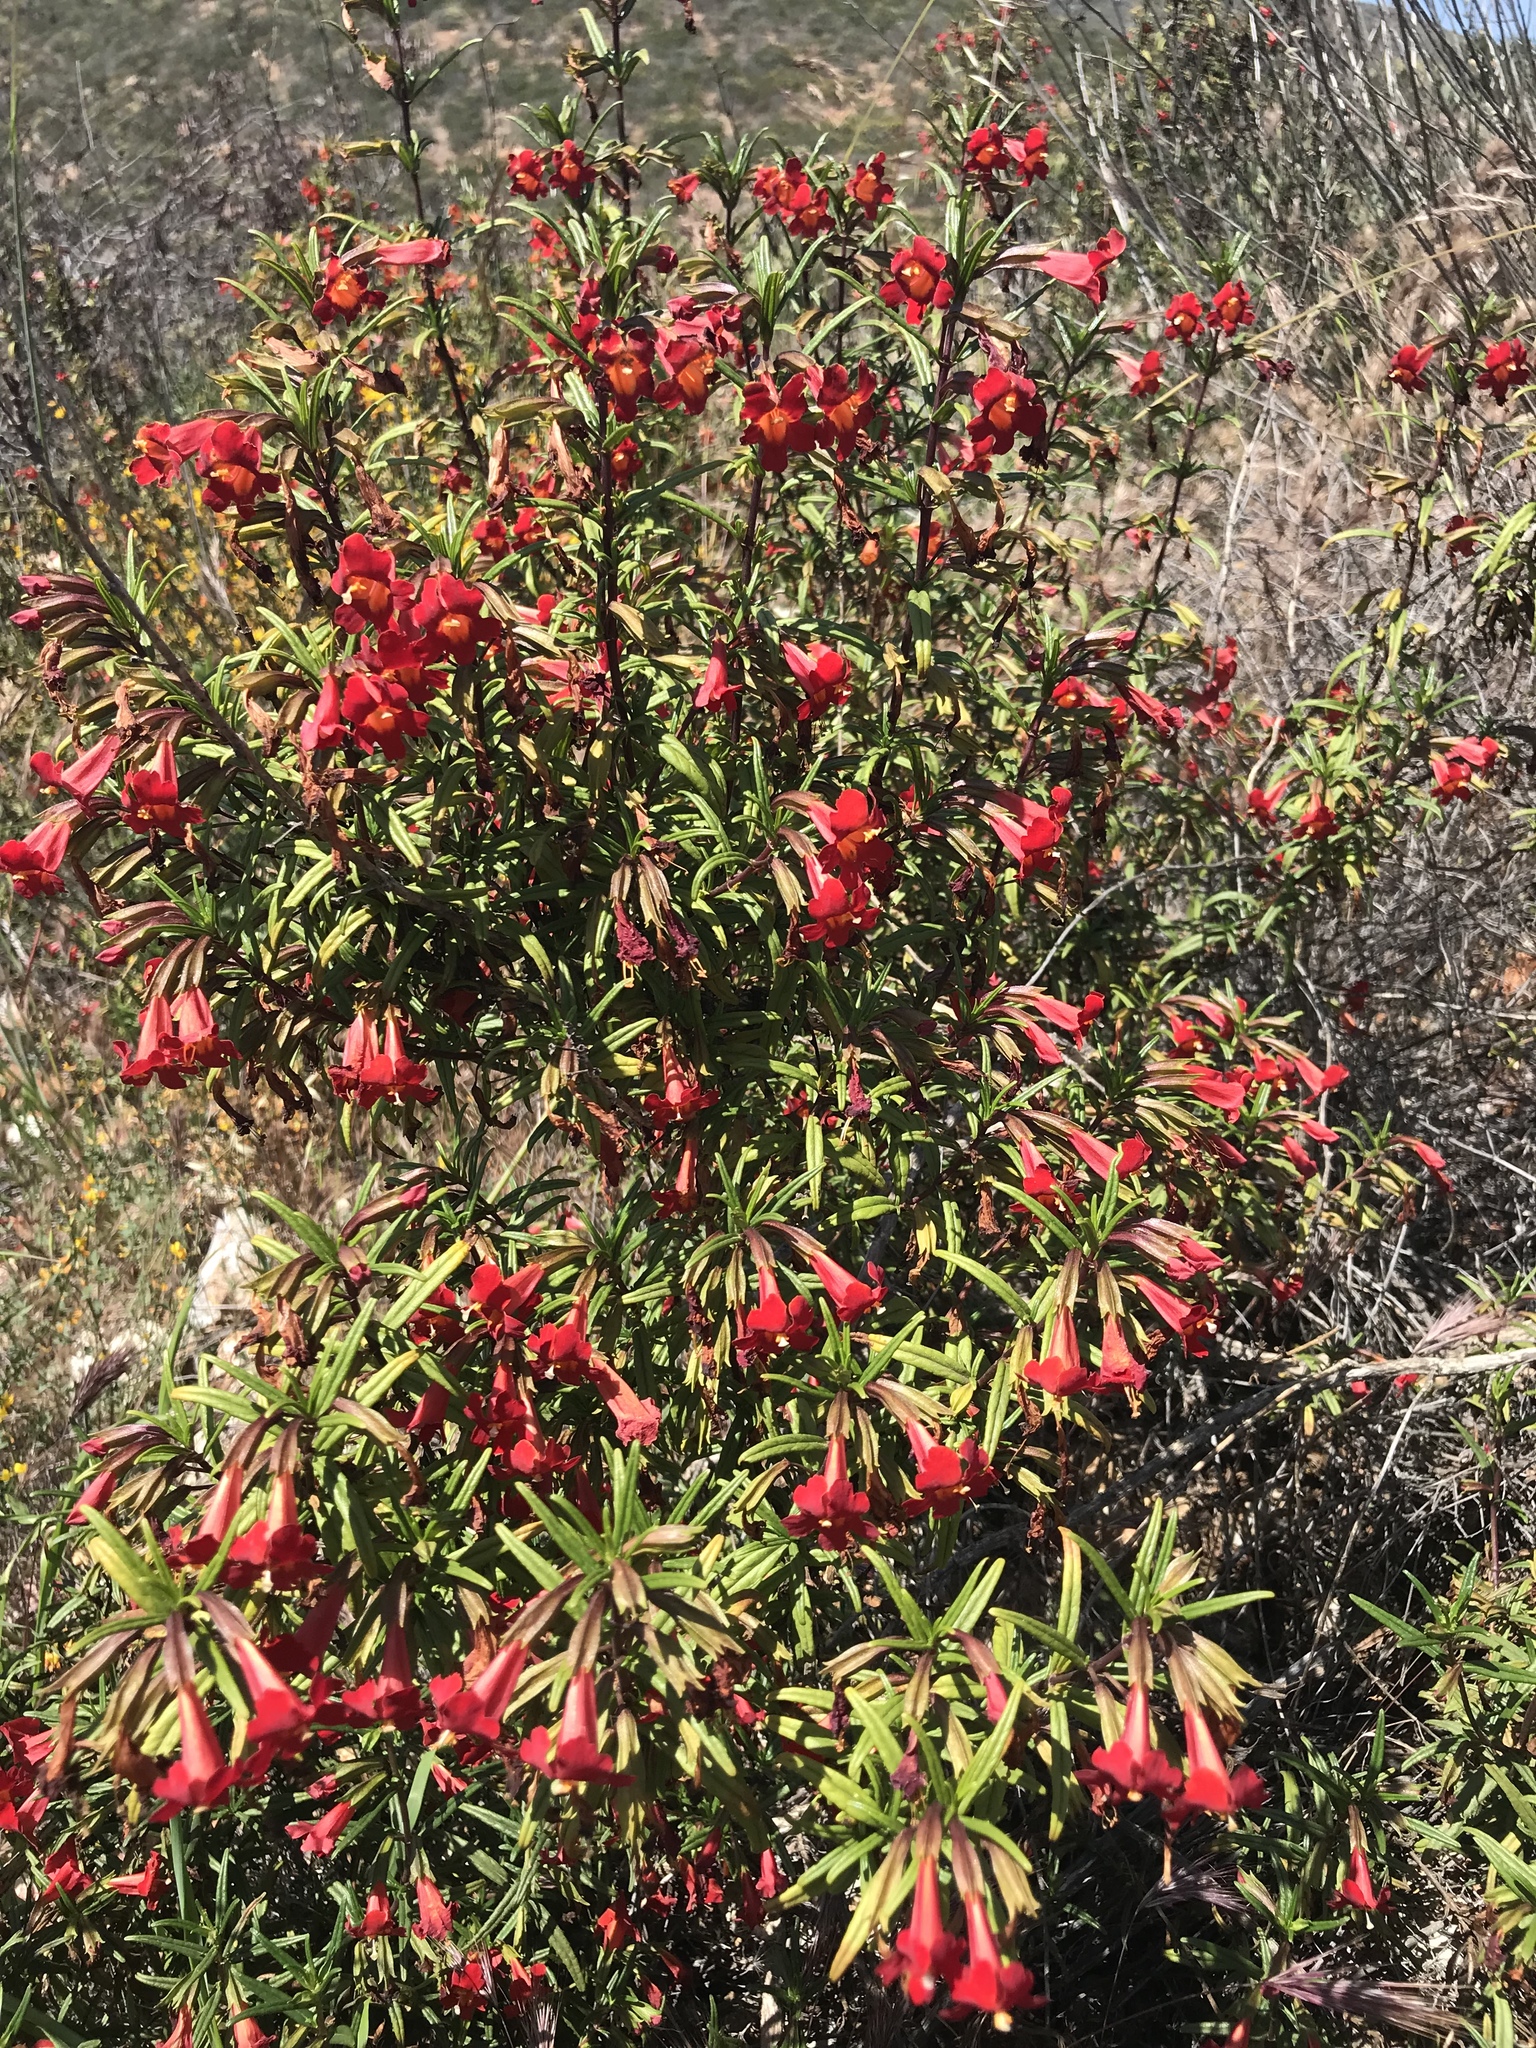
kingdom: Plantae
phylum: Tracheophyta
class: Magnoliopsida
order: Lamiales
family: Phrymaceae
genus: Diplacus
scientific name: Diplacus puniceus
